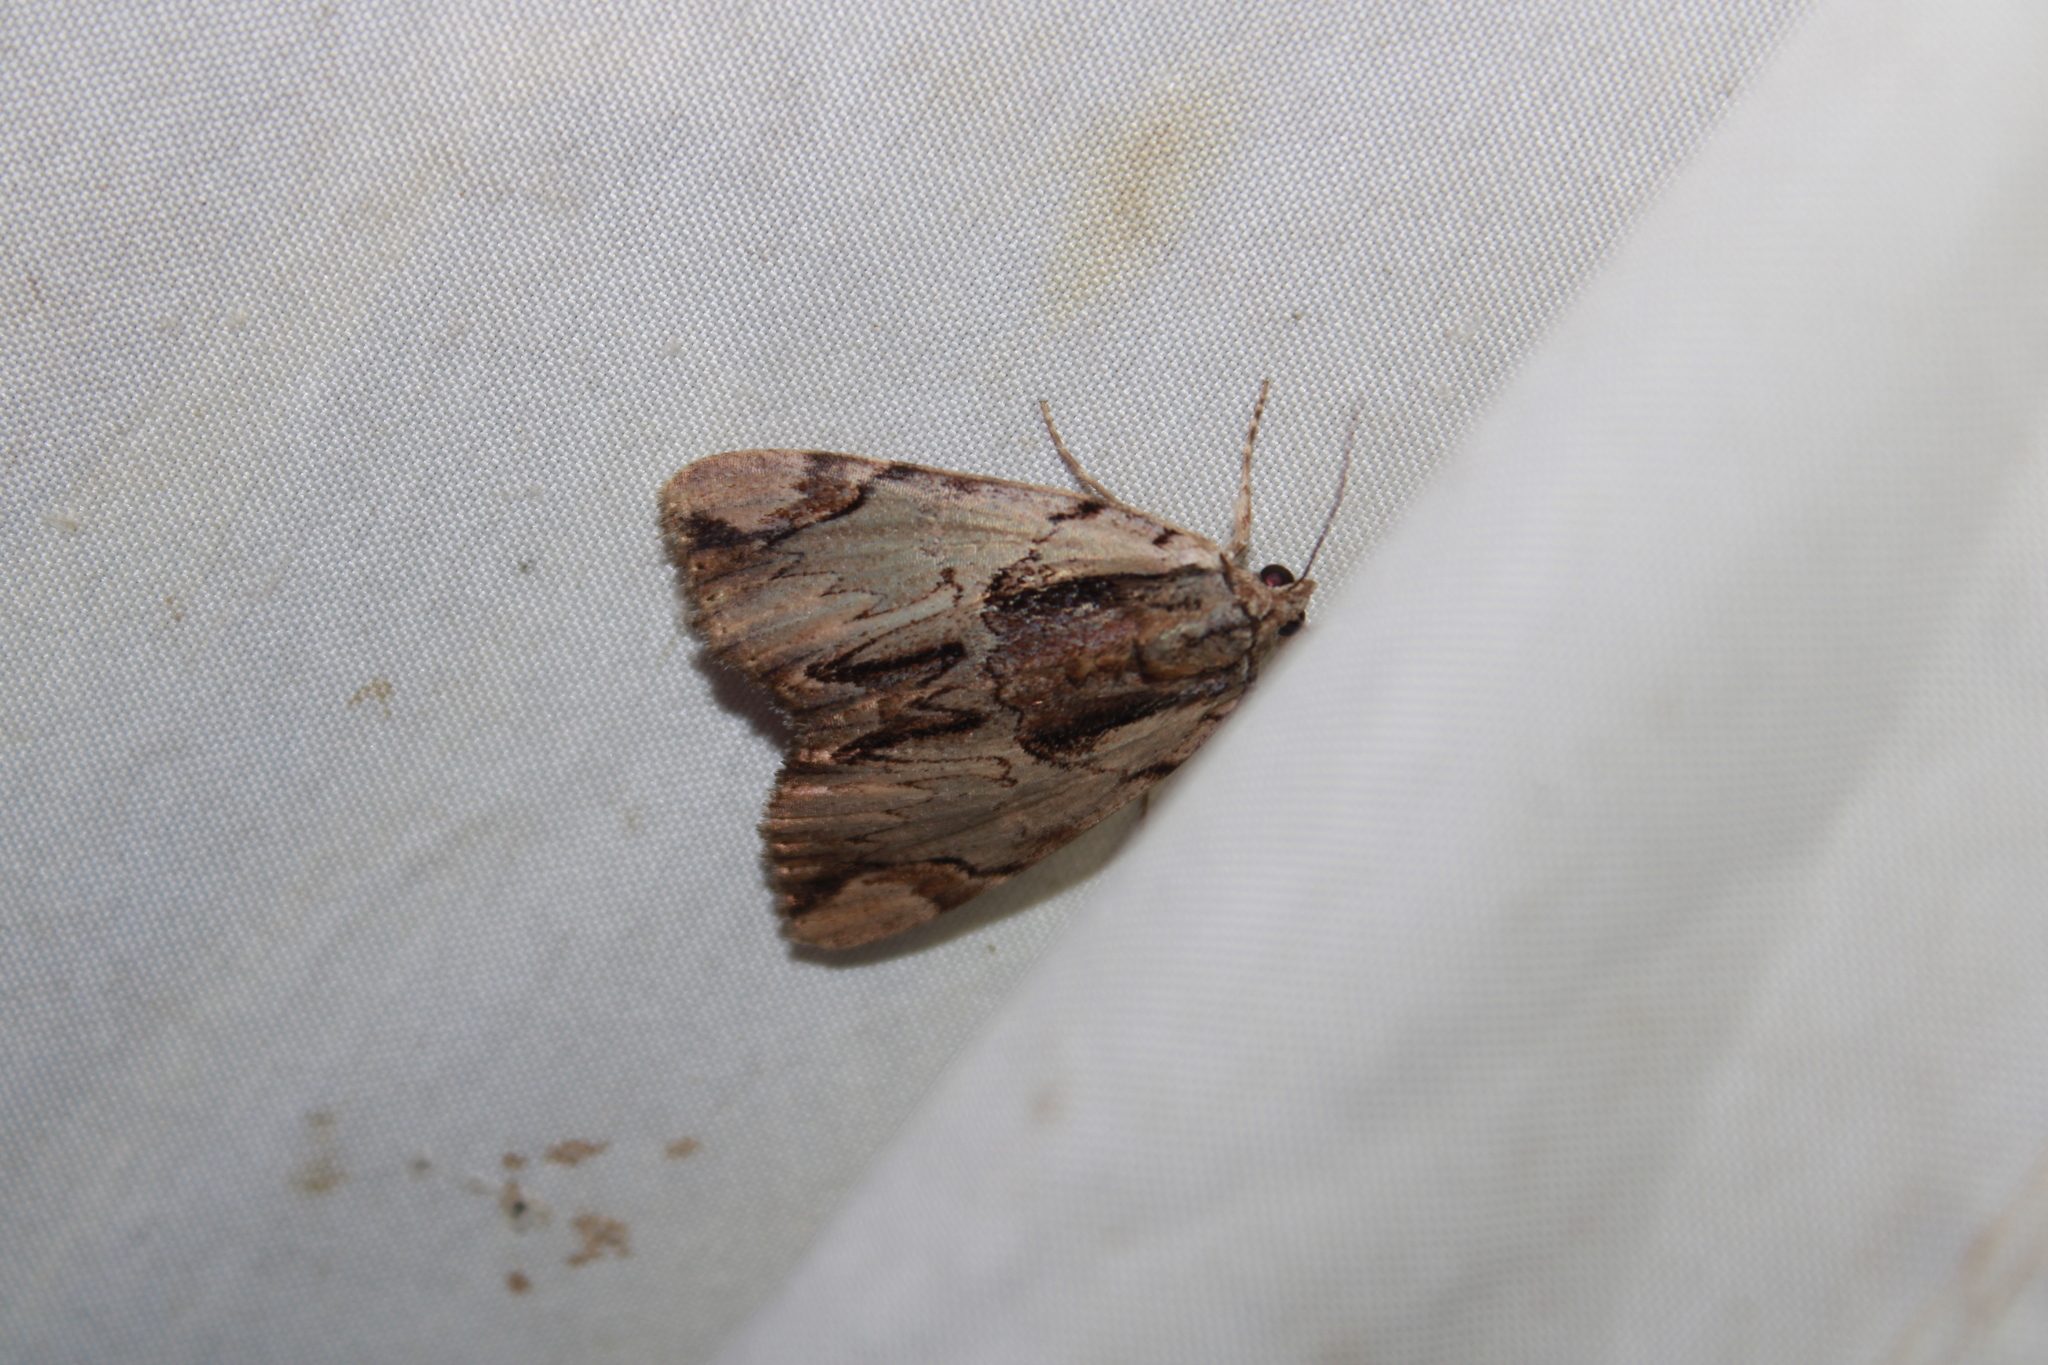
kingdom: Animalia
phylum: Arthropoda
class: Insecta
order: Lepidoptera
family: Erebidae
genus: Catocala
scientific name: Catocala ultronia
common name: Ultronia underwing
